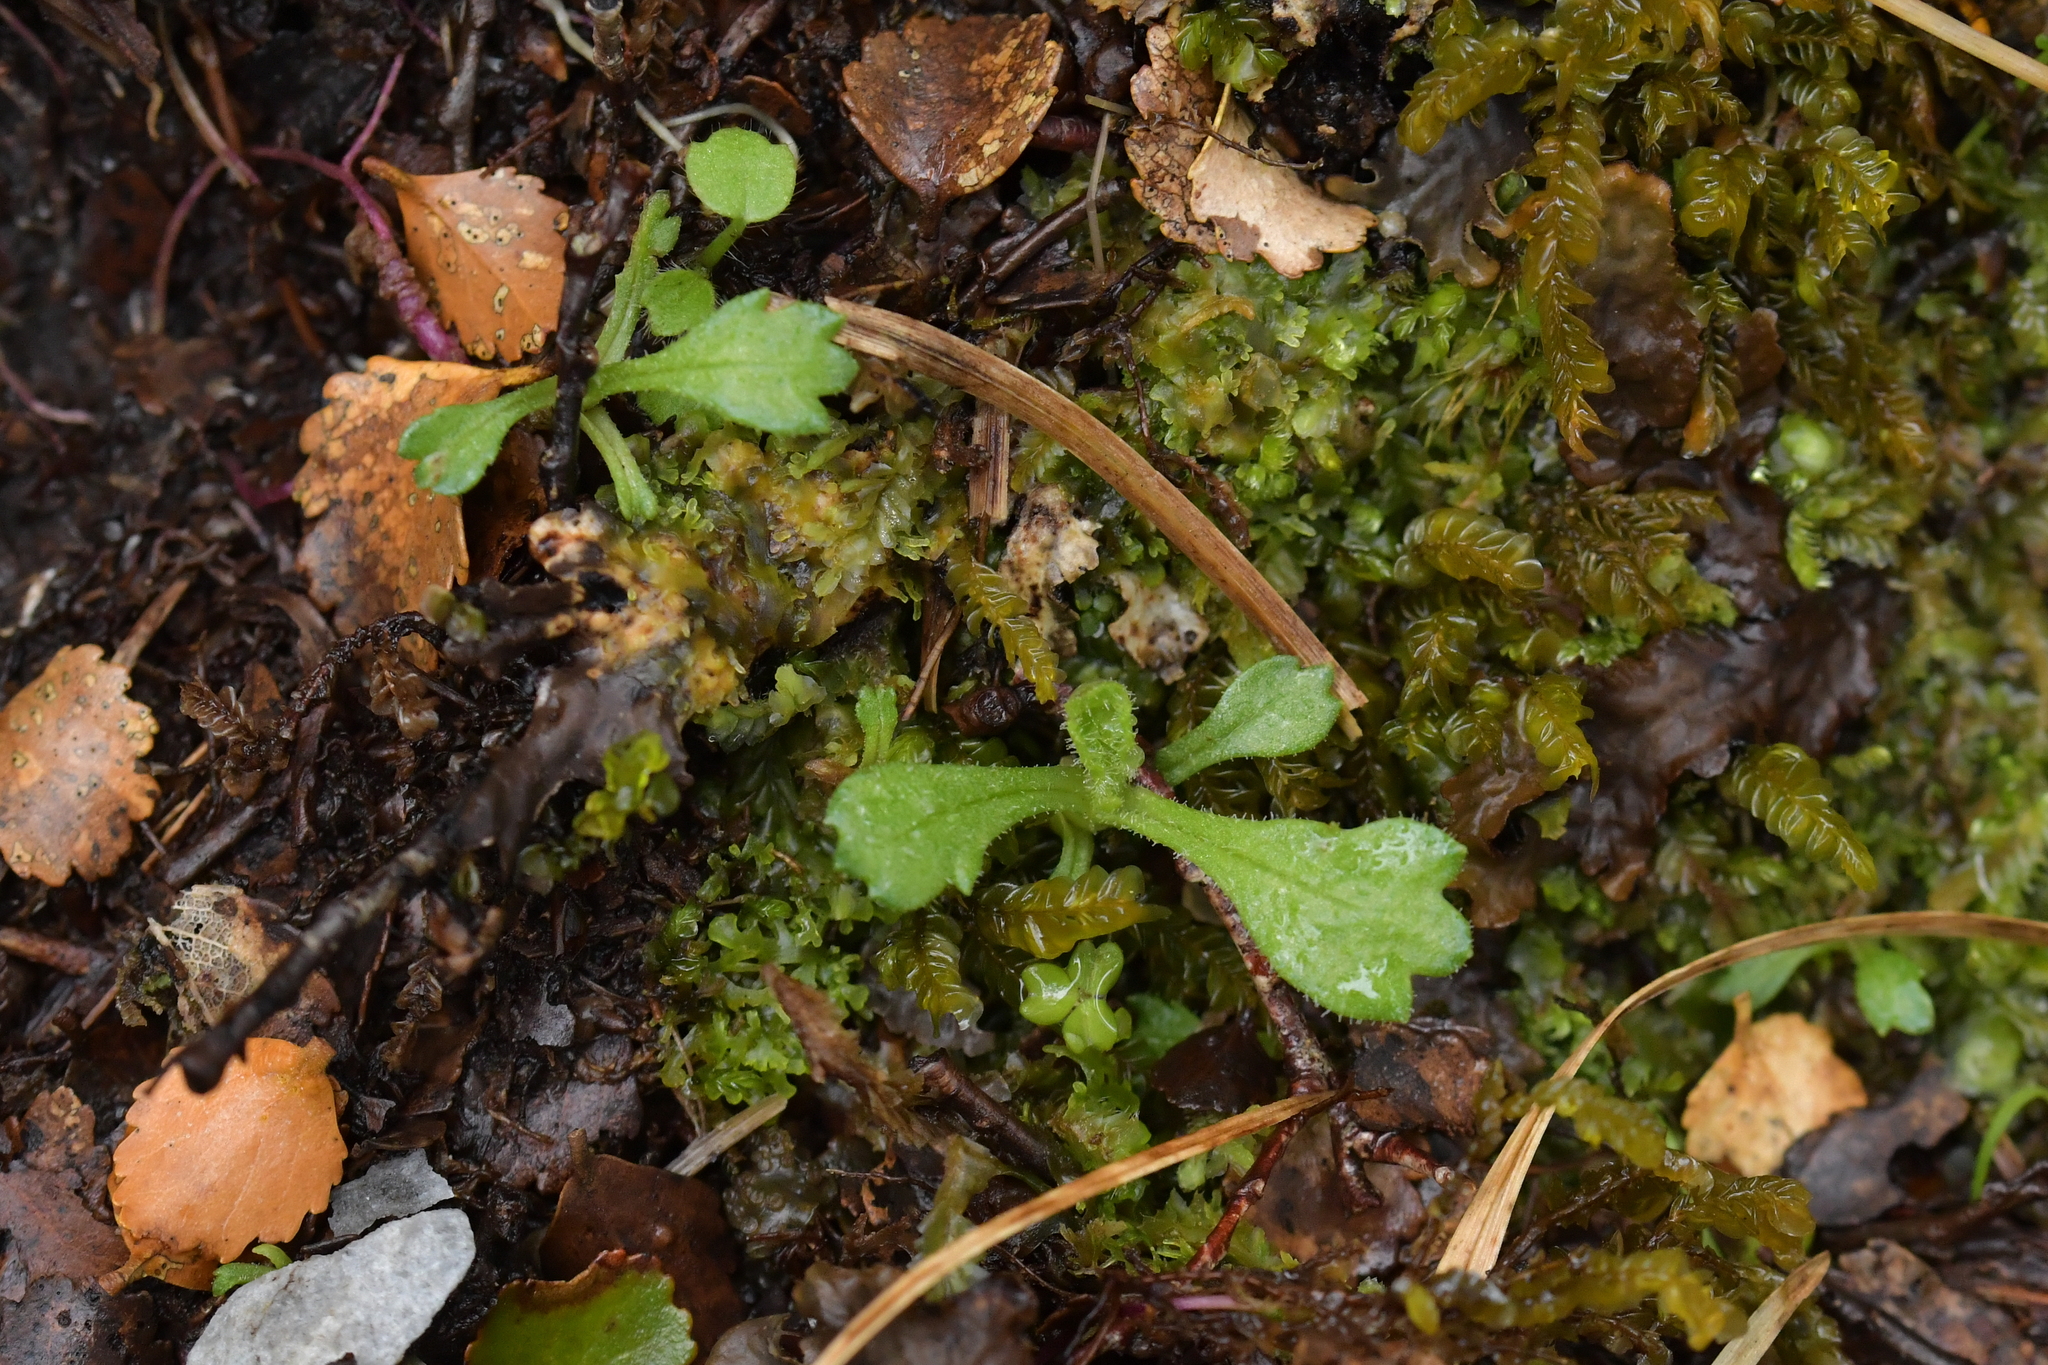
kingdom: Plantae
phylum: Tracheophyta
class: Magnoliopsida
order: Asterales
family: Asteraceae
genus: Brachyscome
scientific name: Brachyscome radicata
